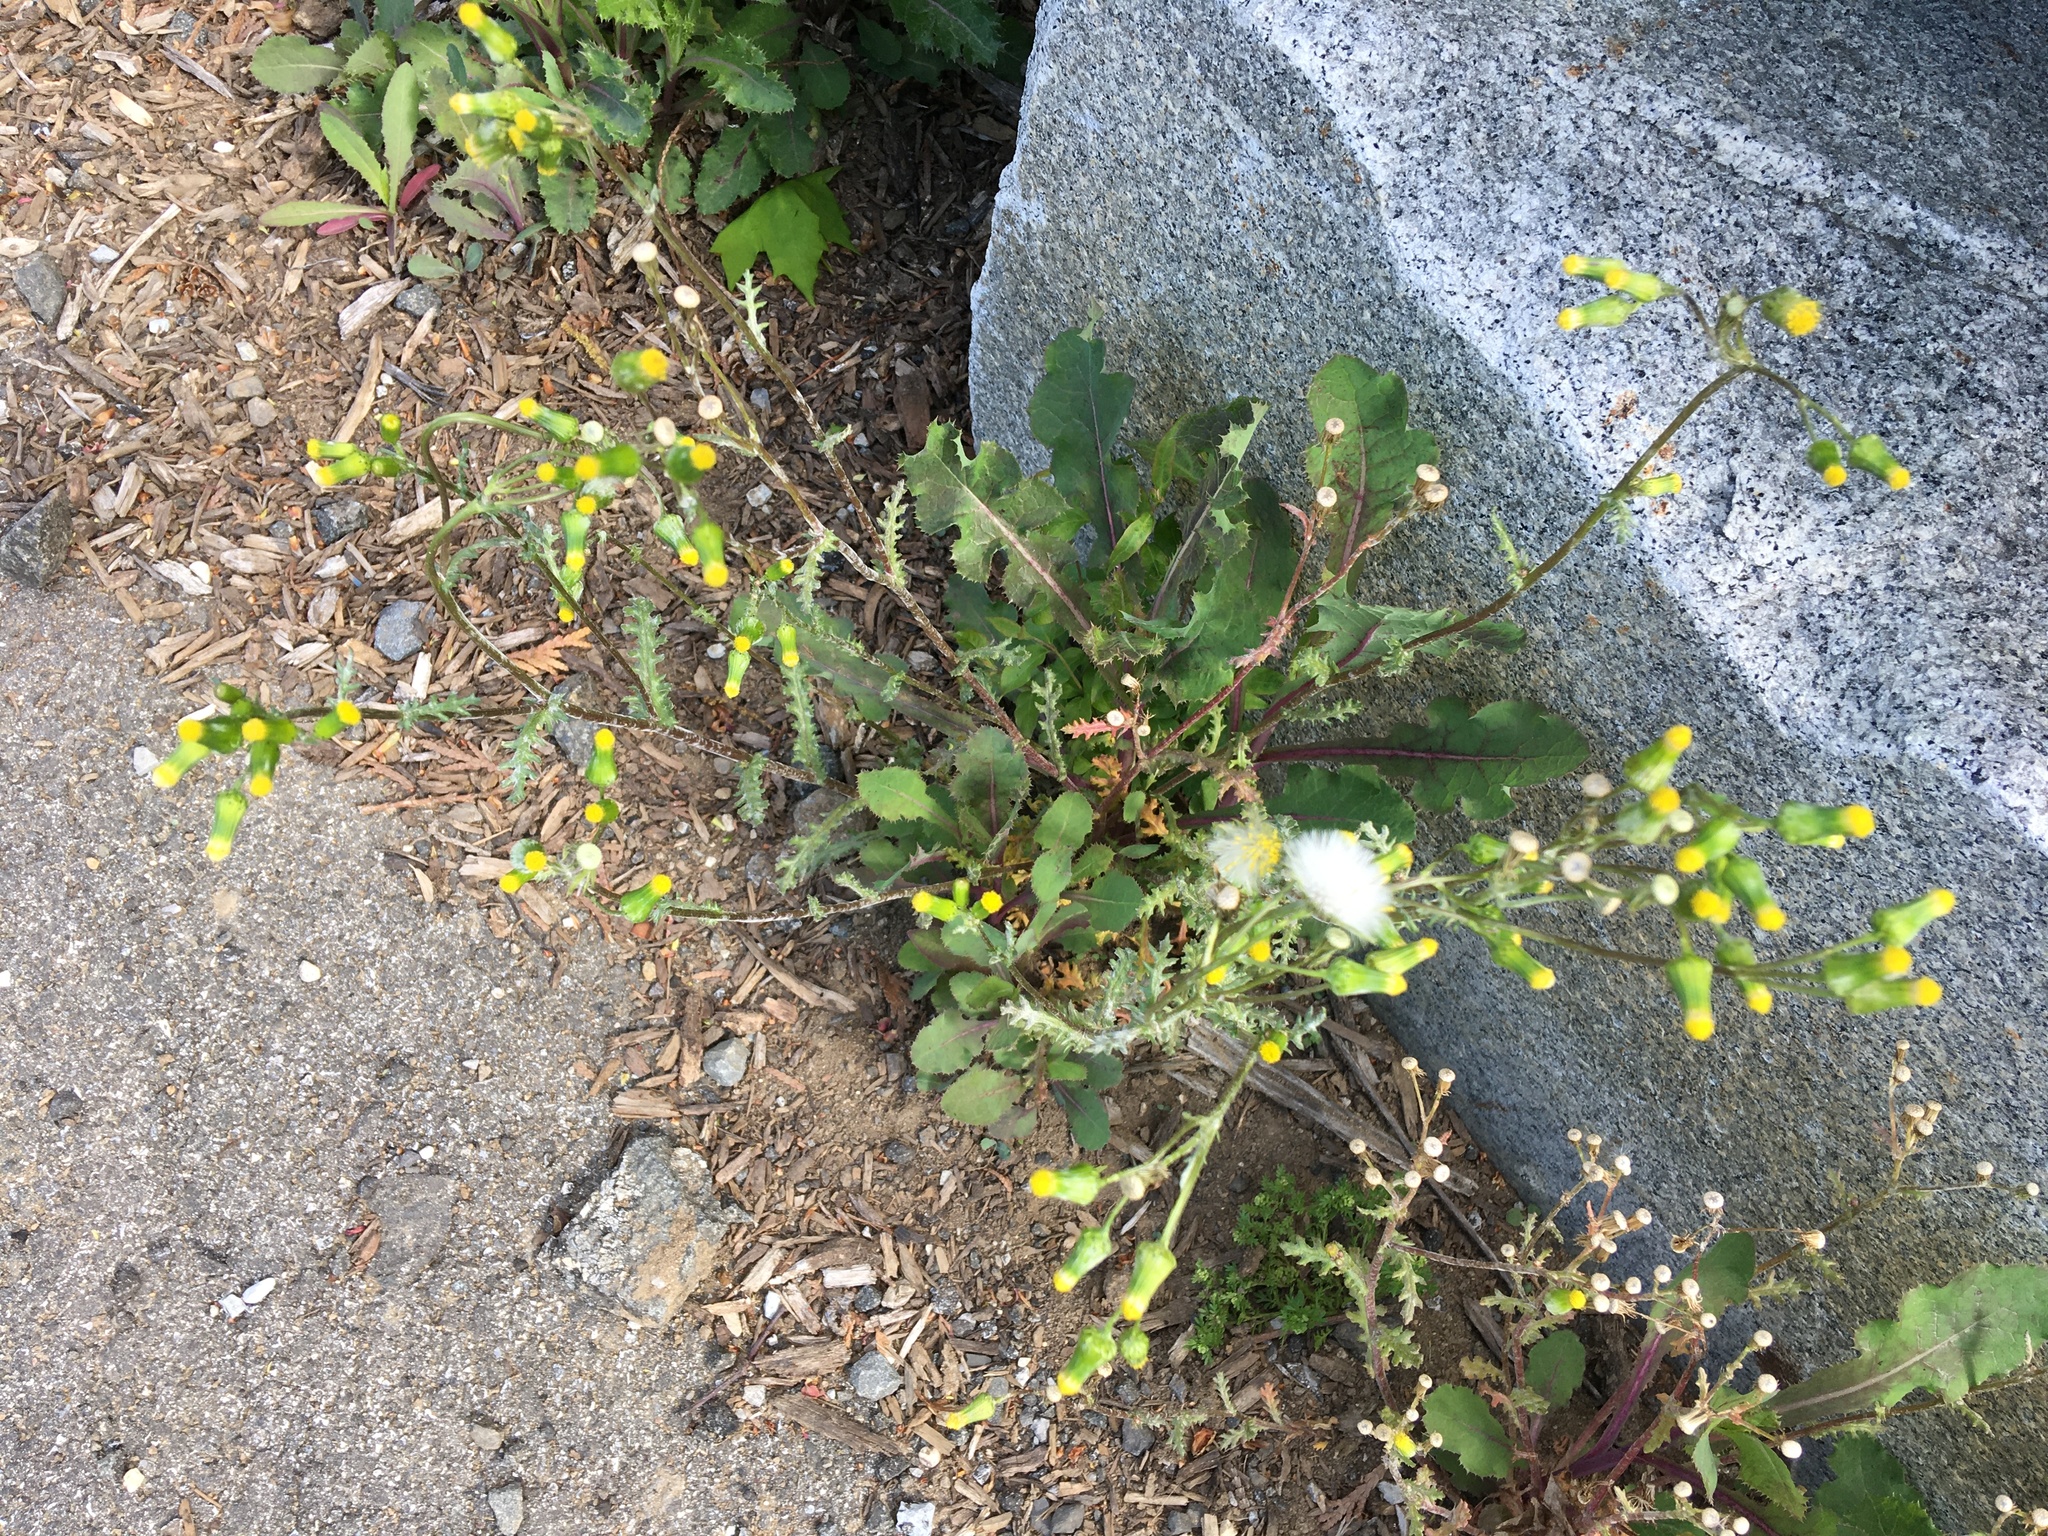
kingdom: Plantae
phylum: Tracheophyta
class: Magnoliopsida
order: Asterales
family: Asteraceae
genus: Senecio
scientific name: Senecio vulgaris
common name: Old-man-in-the-spring
